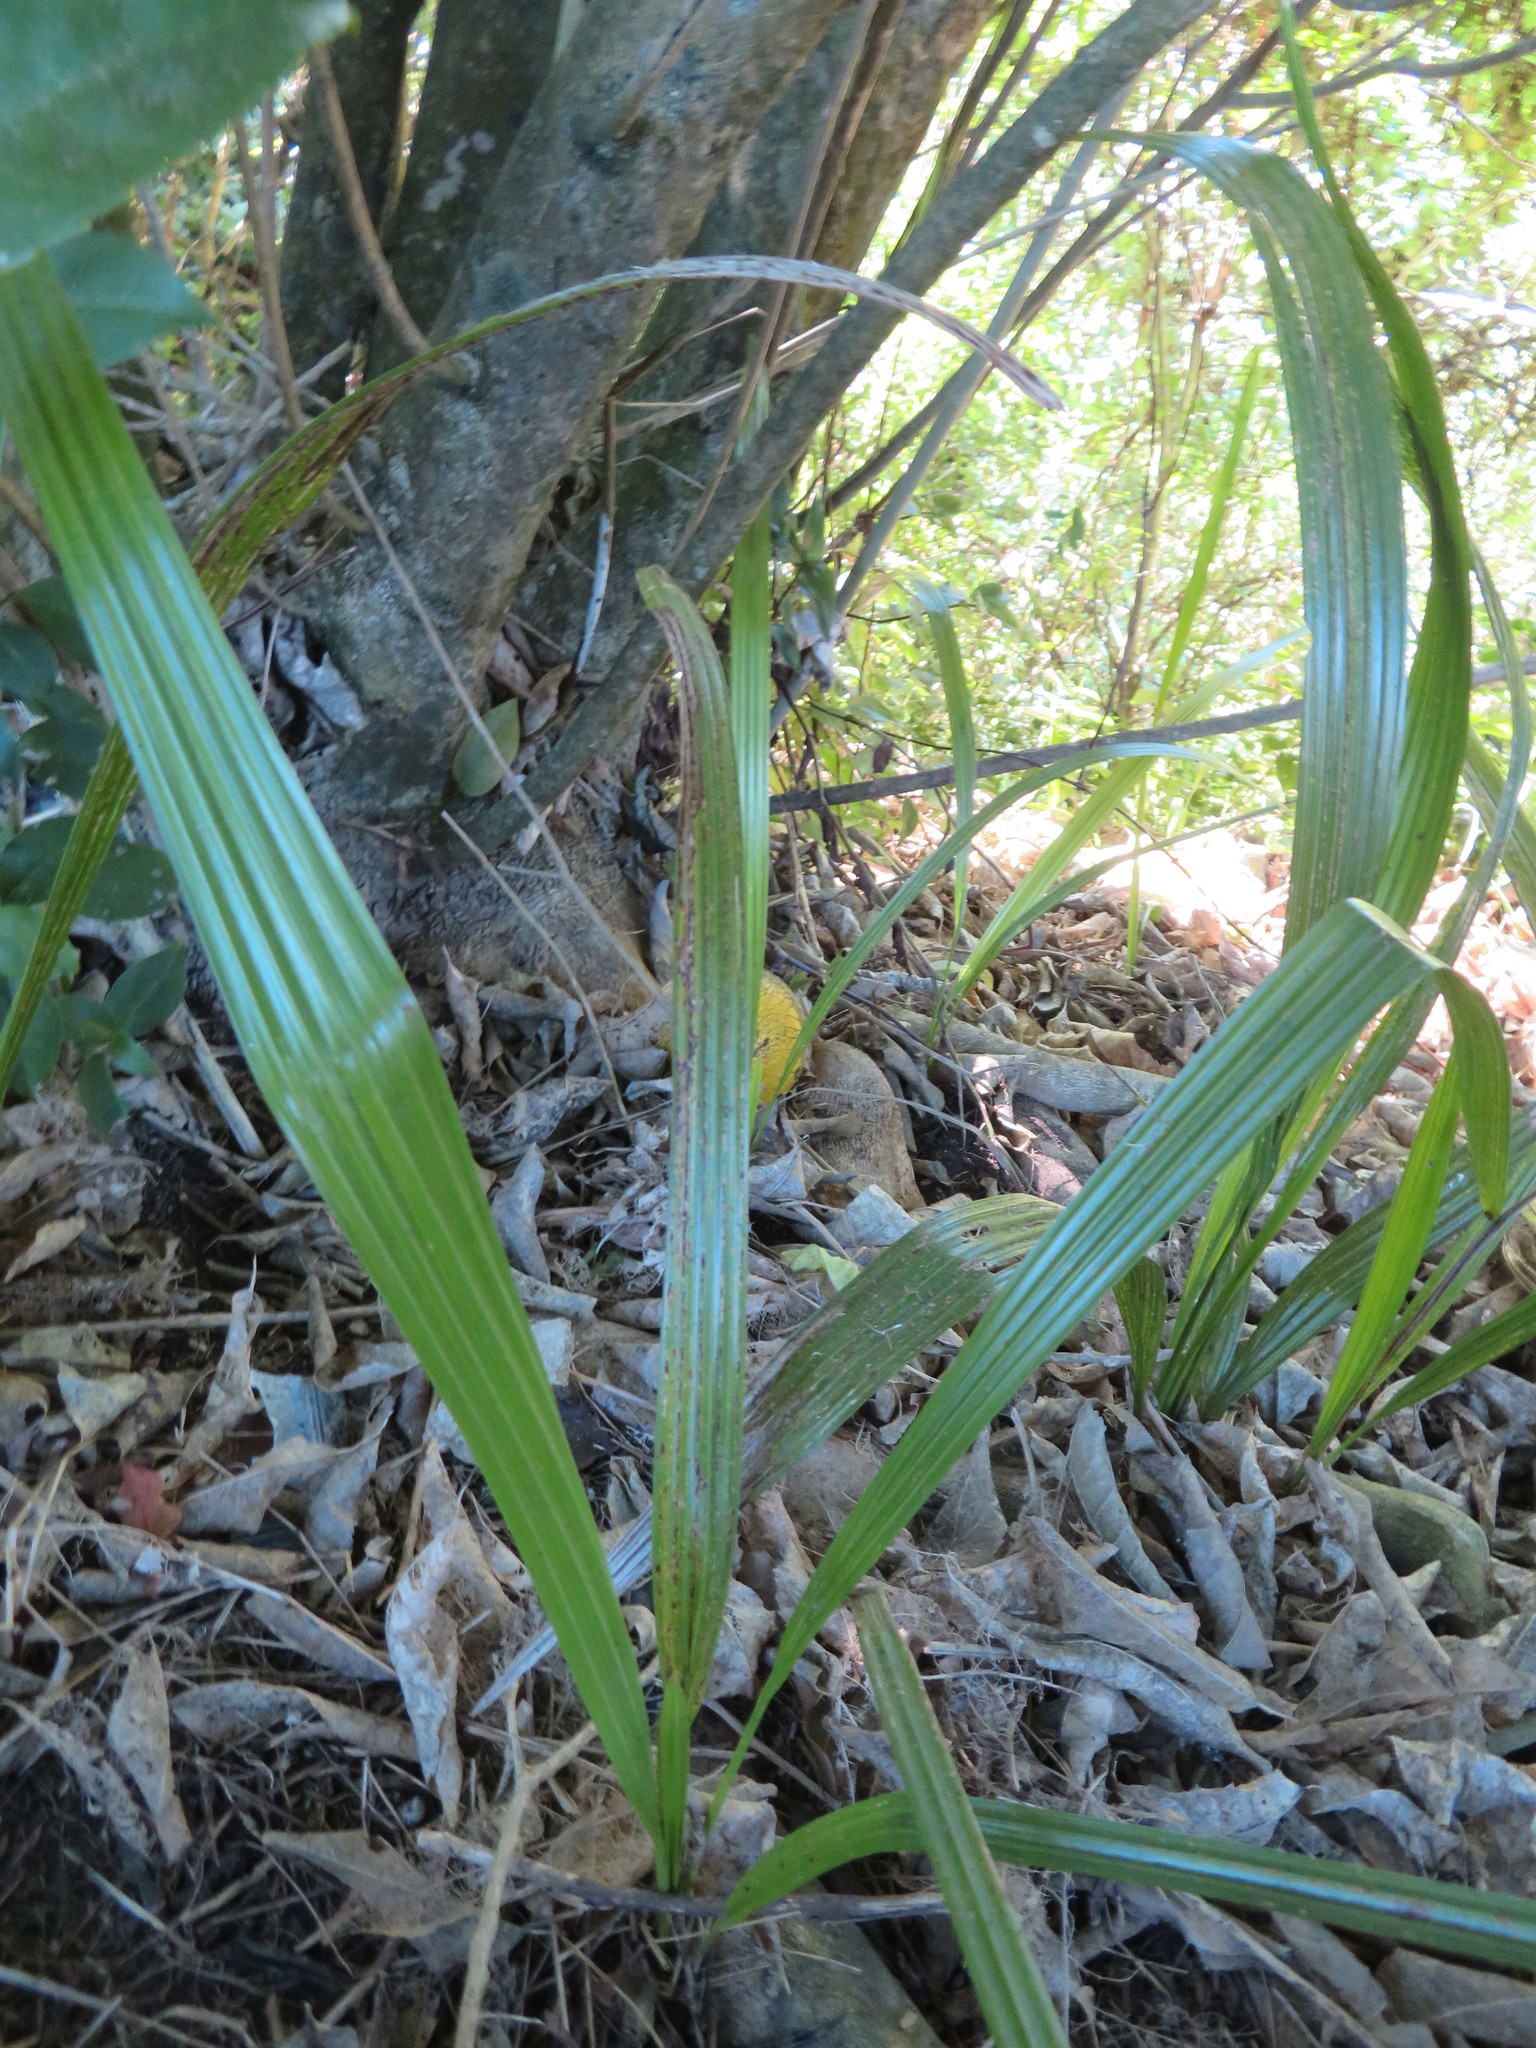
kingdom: Plantae
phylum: Tracheophyta
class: Liliopsida
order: Arecales
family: Arecaceae
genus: Phoenix
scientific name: Phoenix canariensis
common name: Canary island date palm
